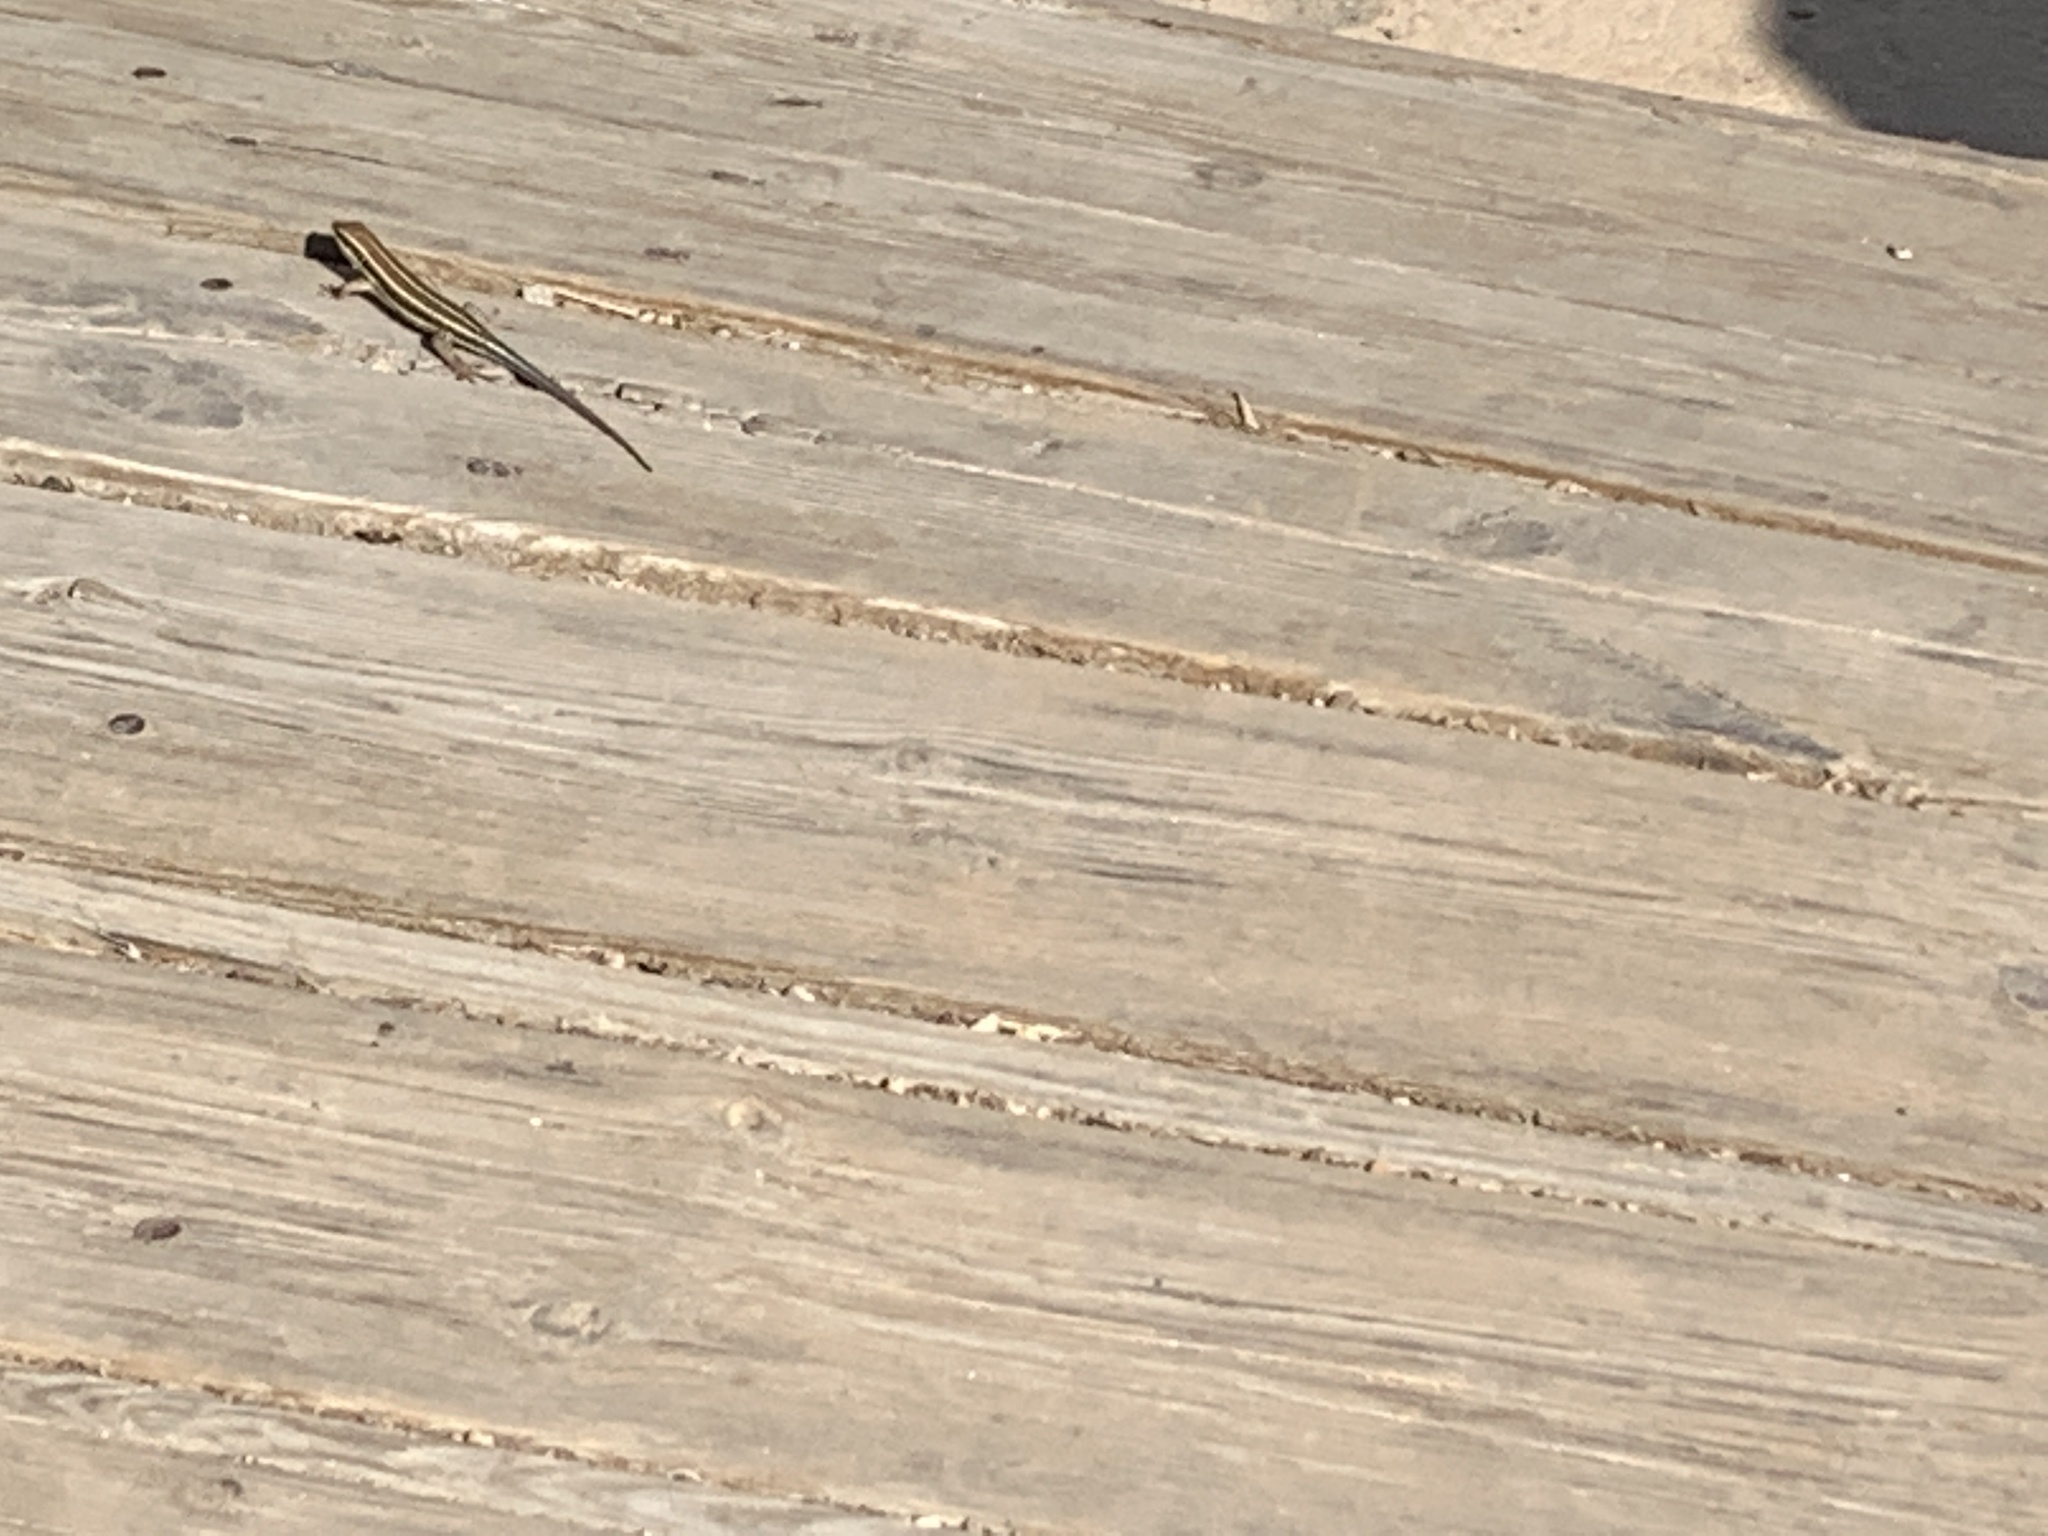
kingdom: Animalia
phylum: Chordata
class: Squamata
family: Scincidae
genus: Trachylepis
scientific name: Trachylepis quinquetaeniata
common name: African five-lined skink
